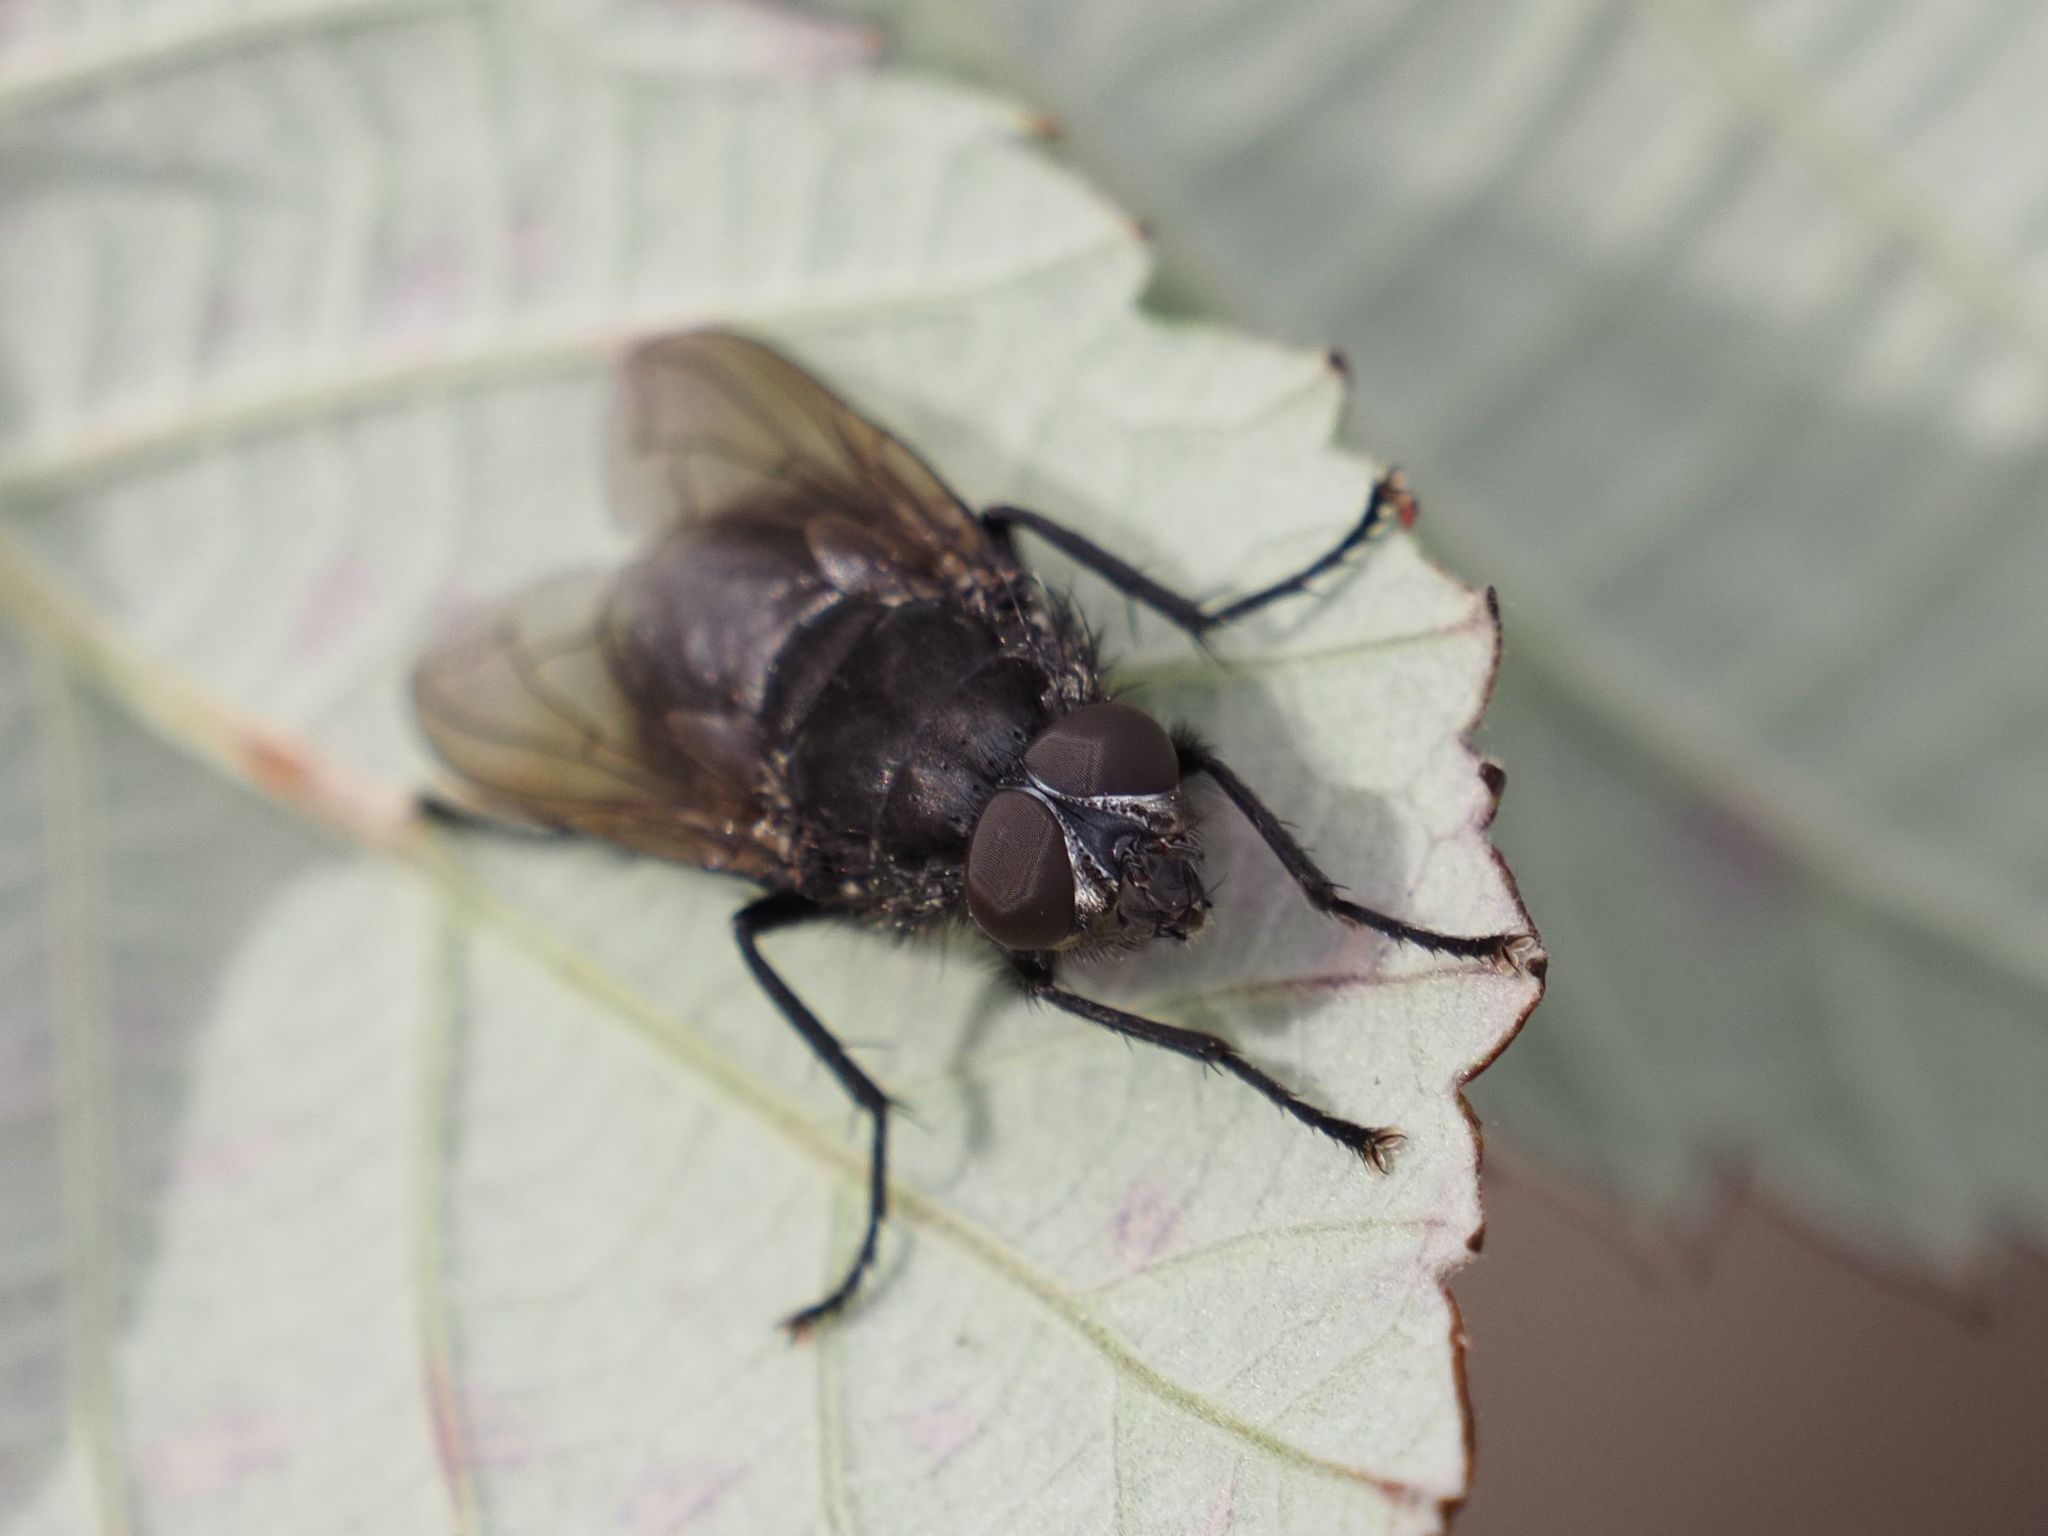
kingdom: Animalia
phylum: Arthropoda
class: Insecta
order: Diptera
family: Polleniidae
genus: Pollenia
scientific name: Pollenia vagabunda
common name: Vagabund cluster fly
